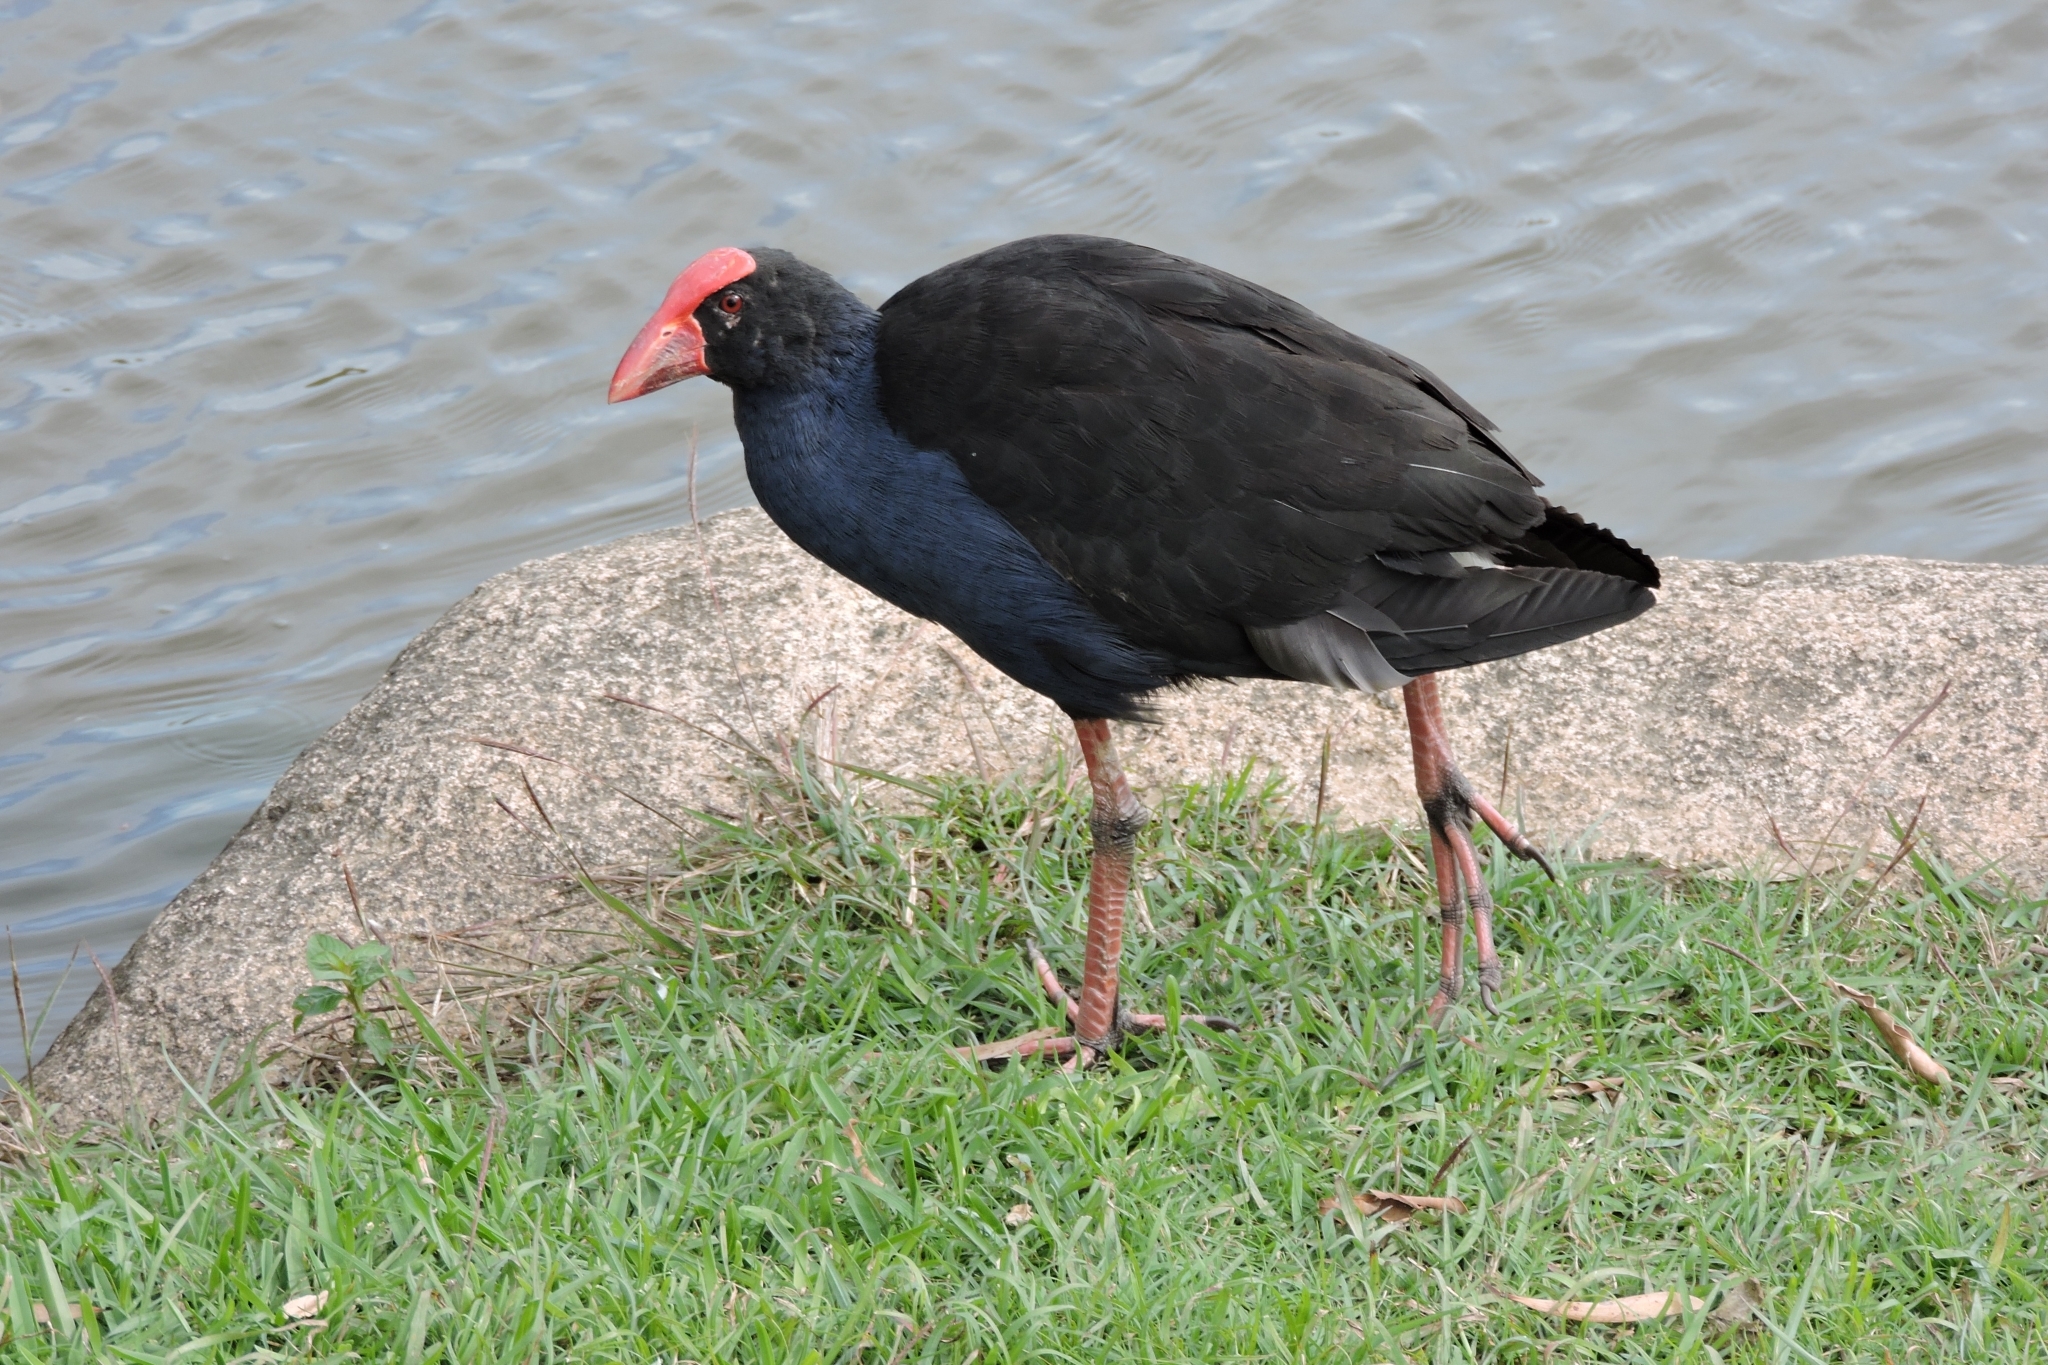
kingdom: Animalia
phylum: Chordata
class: Aves
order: Gruiformes
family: Rallidae
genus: Porphyrio
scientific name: Porphyrio melanotus
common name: Australasian swamphen
